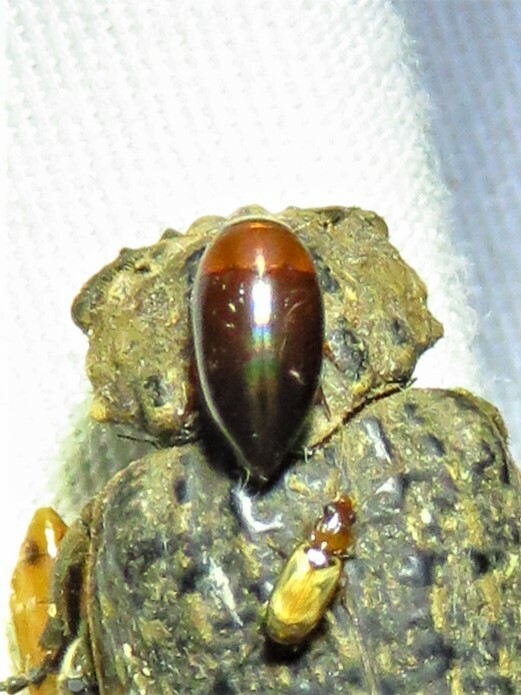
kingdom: Animalia
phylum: Arthropoda
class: Insecta
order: Coleoptera
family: Noteridae
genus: Hydrocanthus
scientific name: Hydrocanthus
